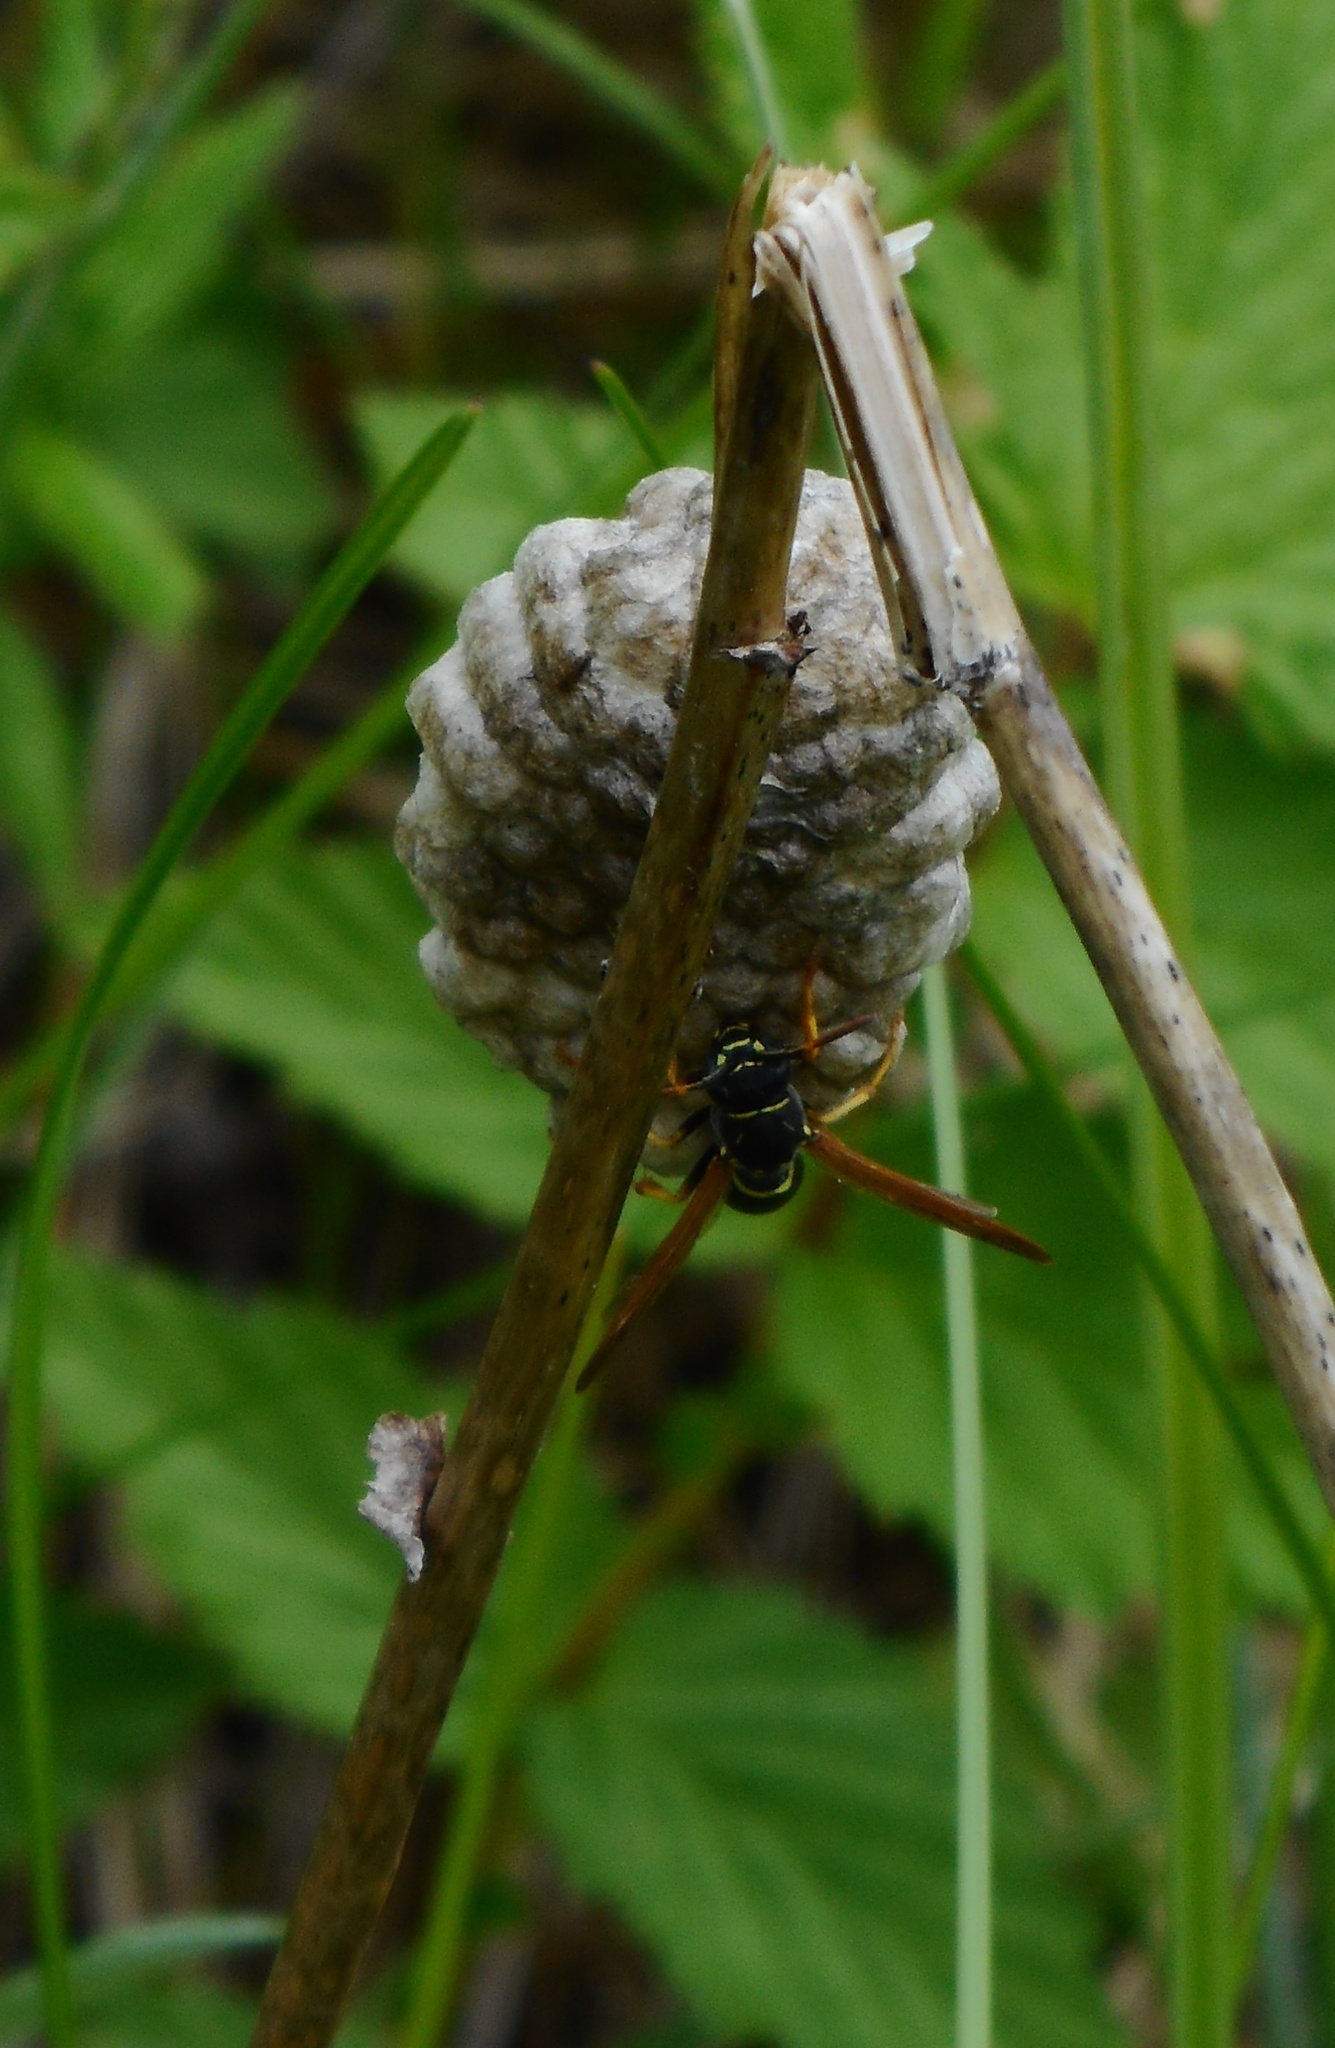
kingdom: Animalia
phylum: Arthropoda
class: Insecta
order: Hymenoptera
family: Eumenidae
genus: Polistes
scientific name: Polistes
